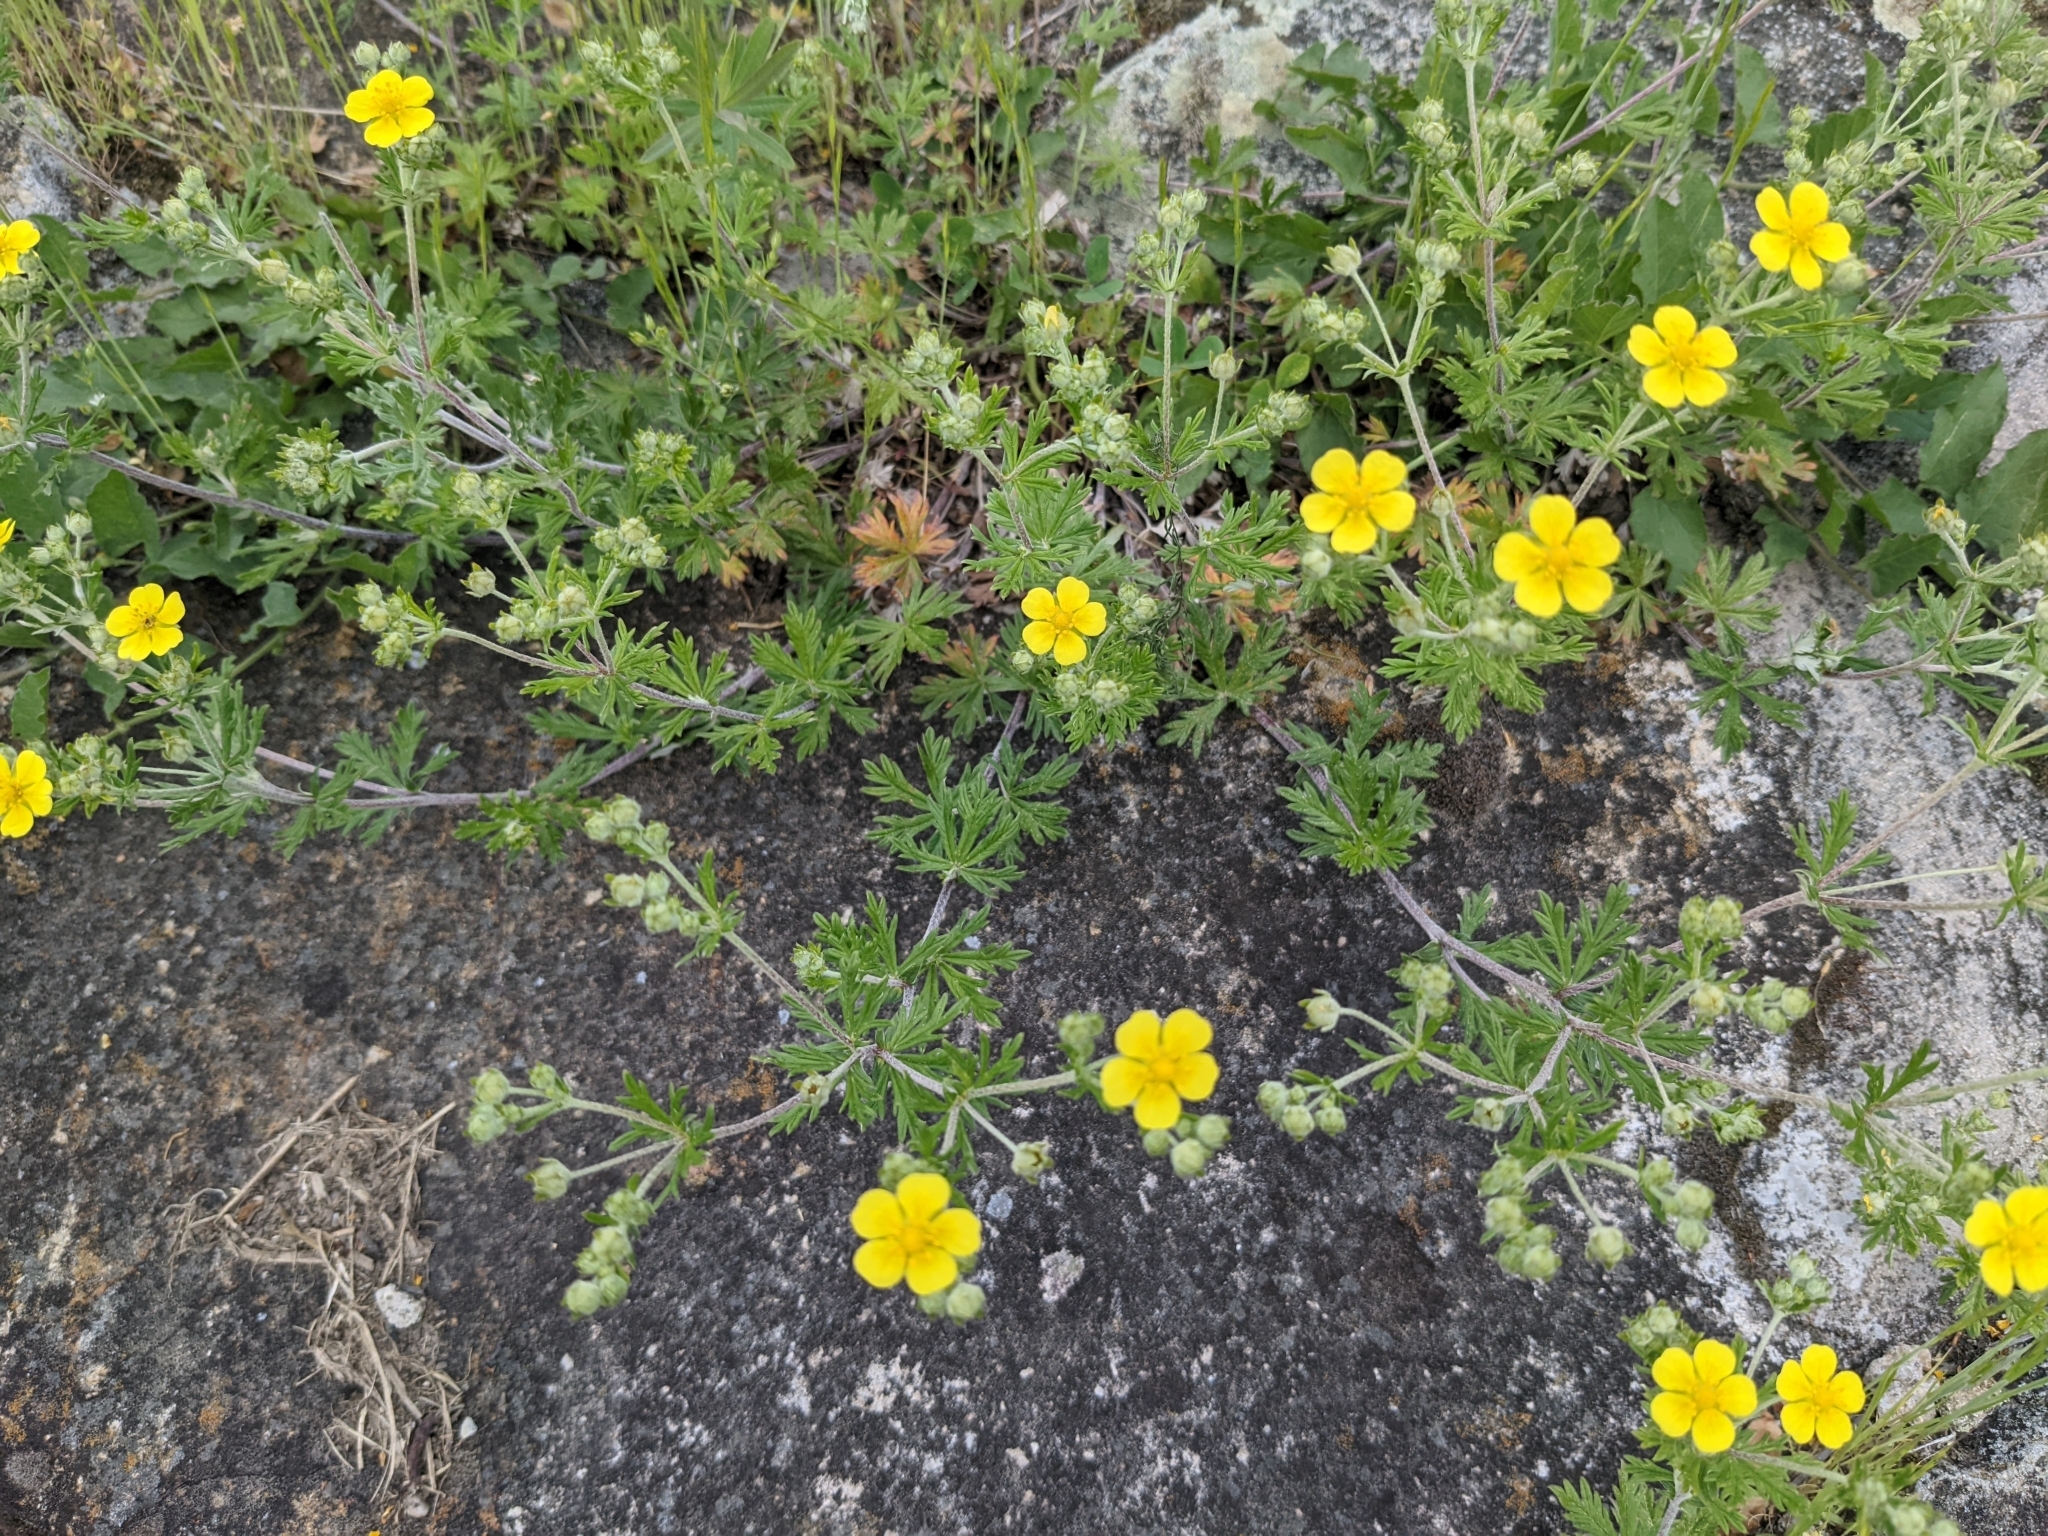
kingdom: Plantae
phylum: Tracheophyta
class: Magnoliopsida
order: Rosales
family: Rosaceae
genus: Potentilla
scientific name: Potentilla argentea
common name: Hoary cinquefoil
